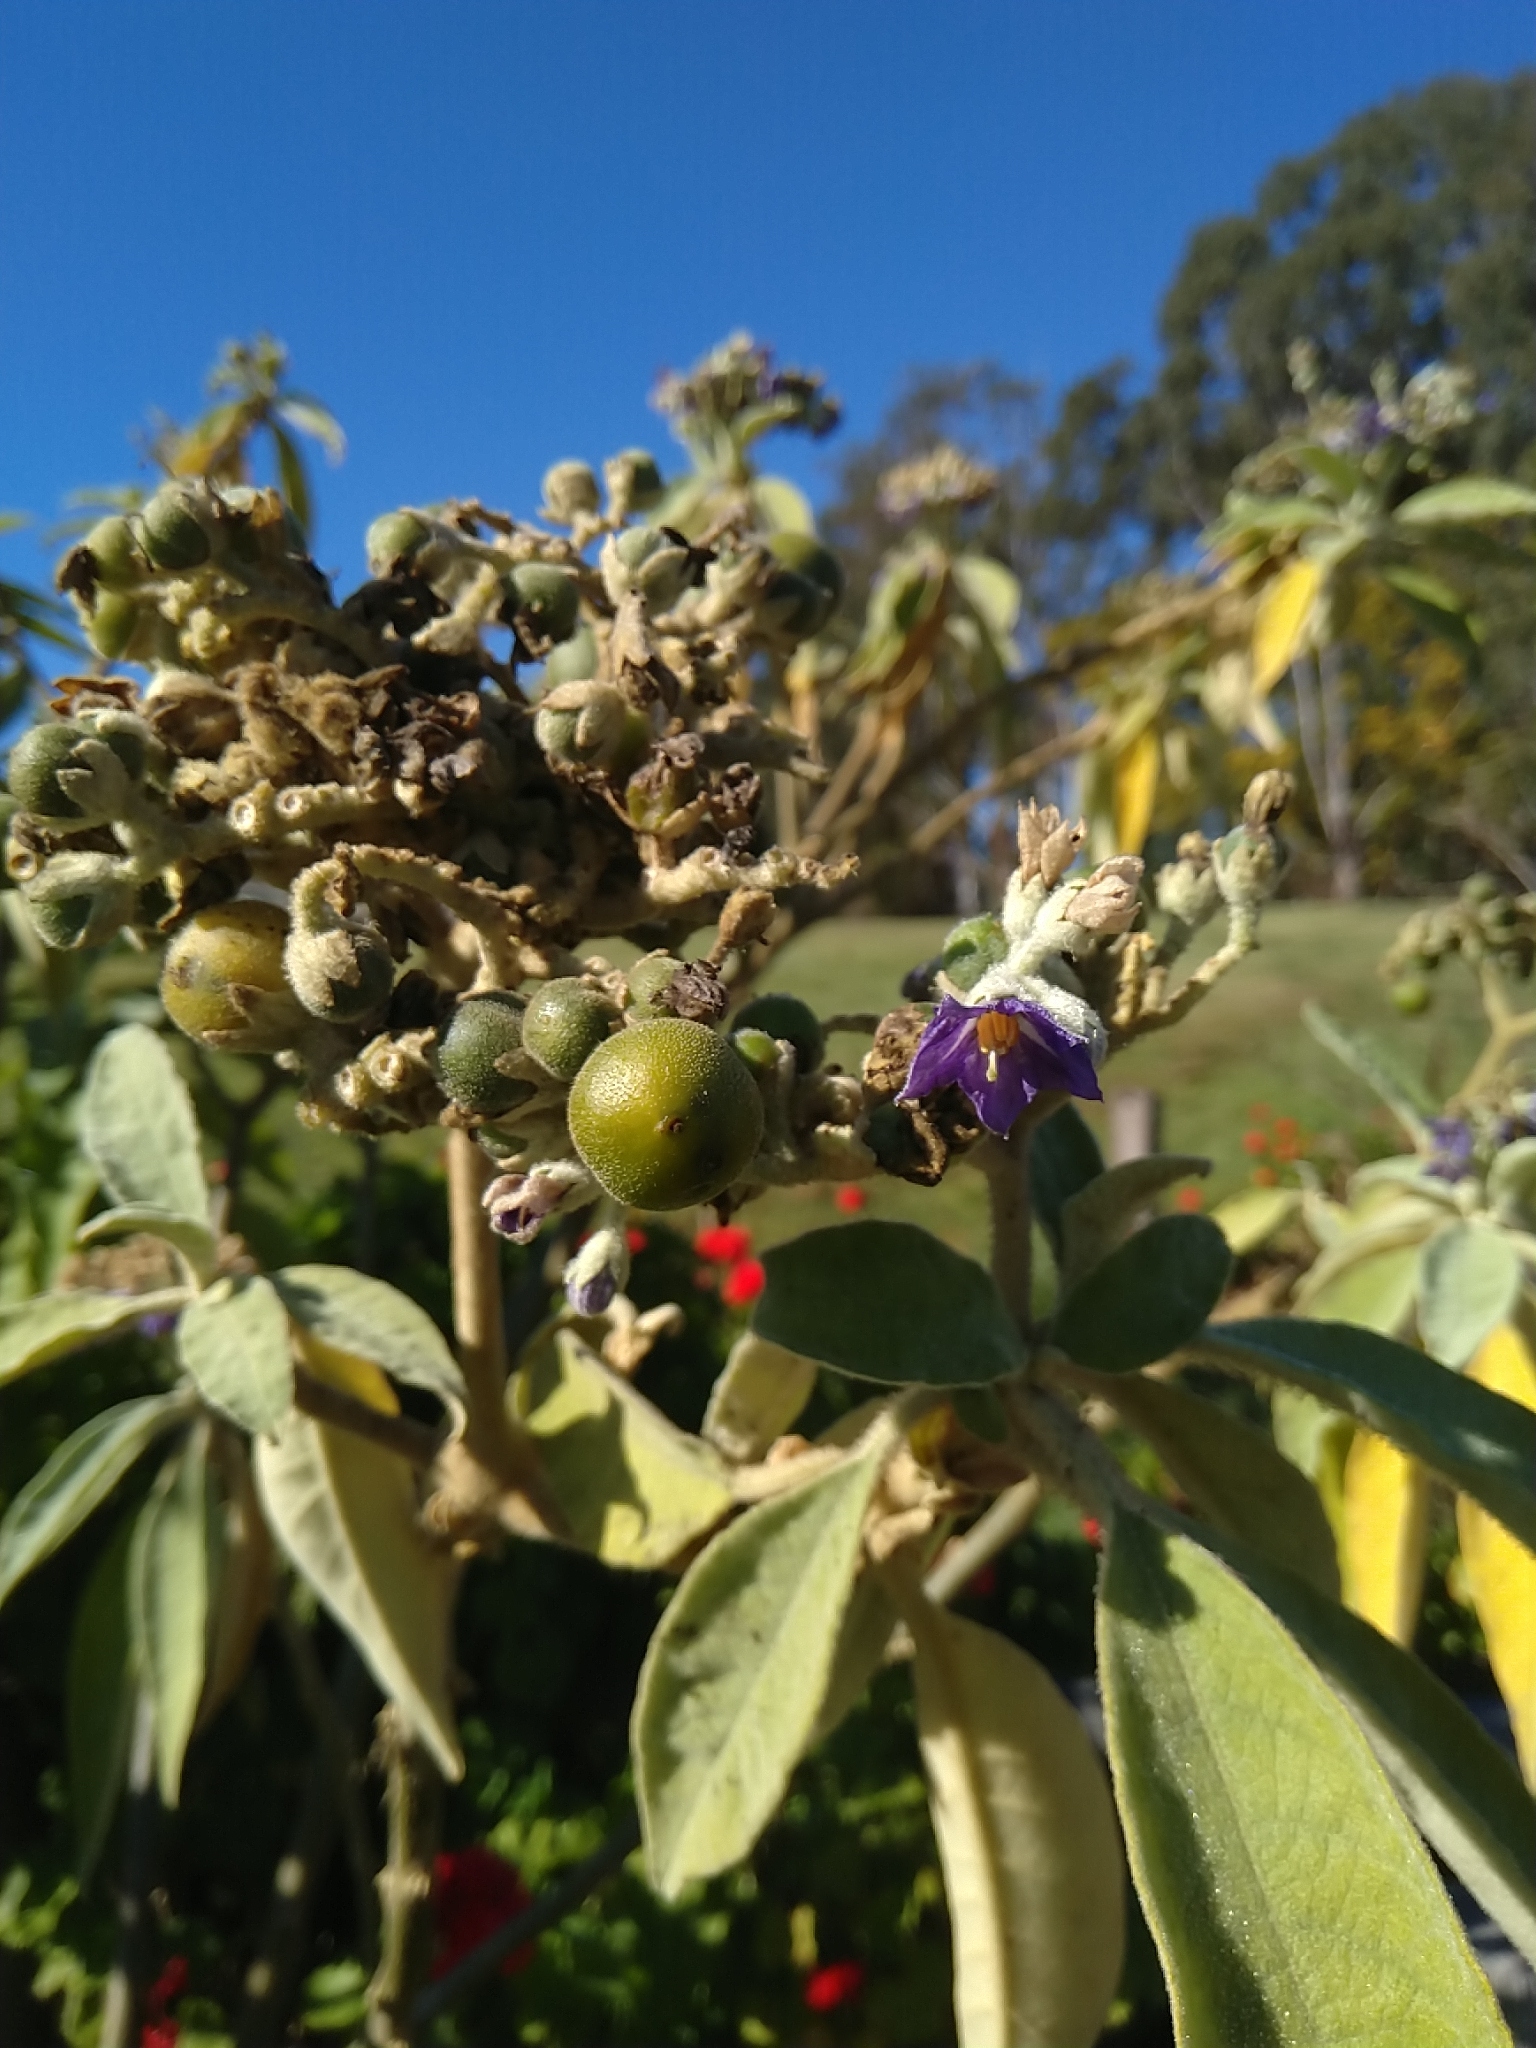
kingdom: Plantae
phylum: Tracheophyta
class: Magnoliopsida
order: Solanales
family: Solanaceae
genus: Solanum
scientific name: Solanum mauritianum
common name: Earleaf nightshade
